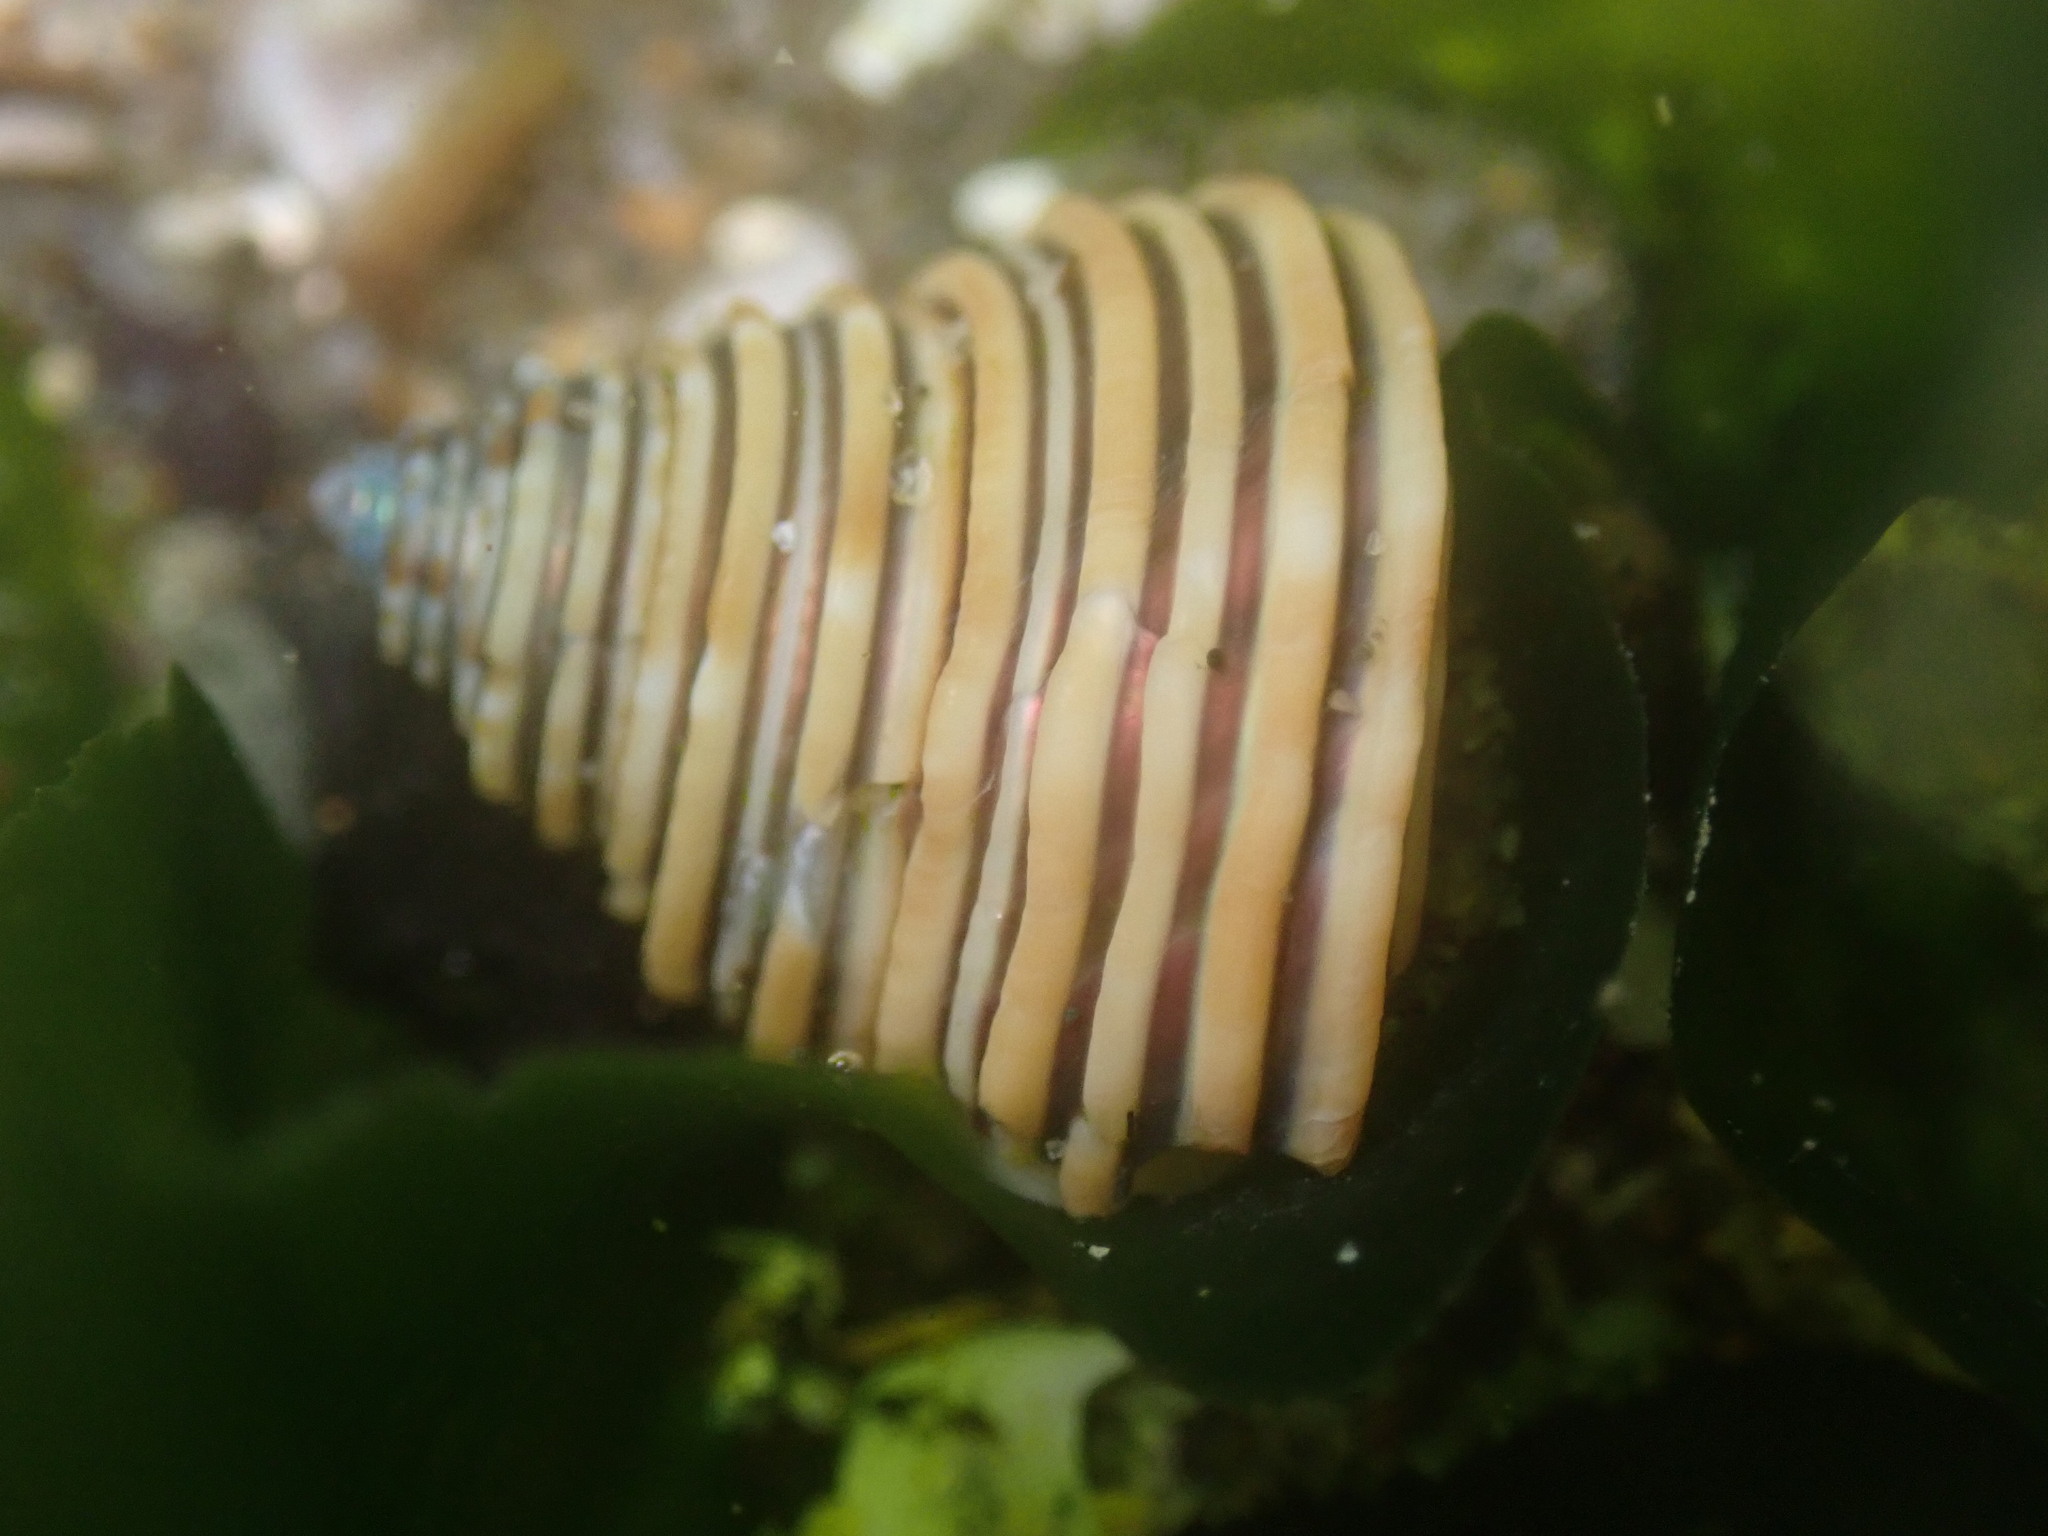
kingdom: Animalia
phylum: Mollusca
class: Gastropoda
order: Trochida
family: Calliostomatidae
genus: Calliostoma
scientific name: Calliostoma canaliculatum
